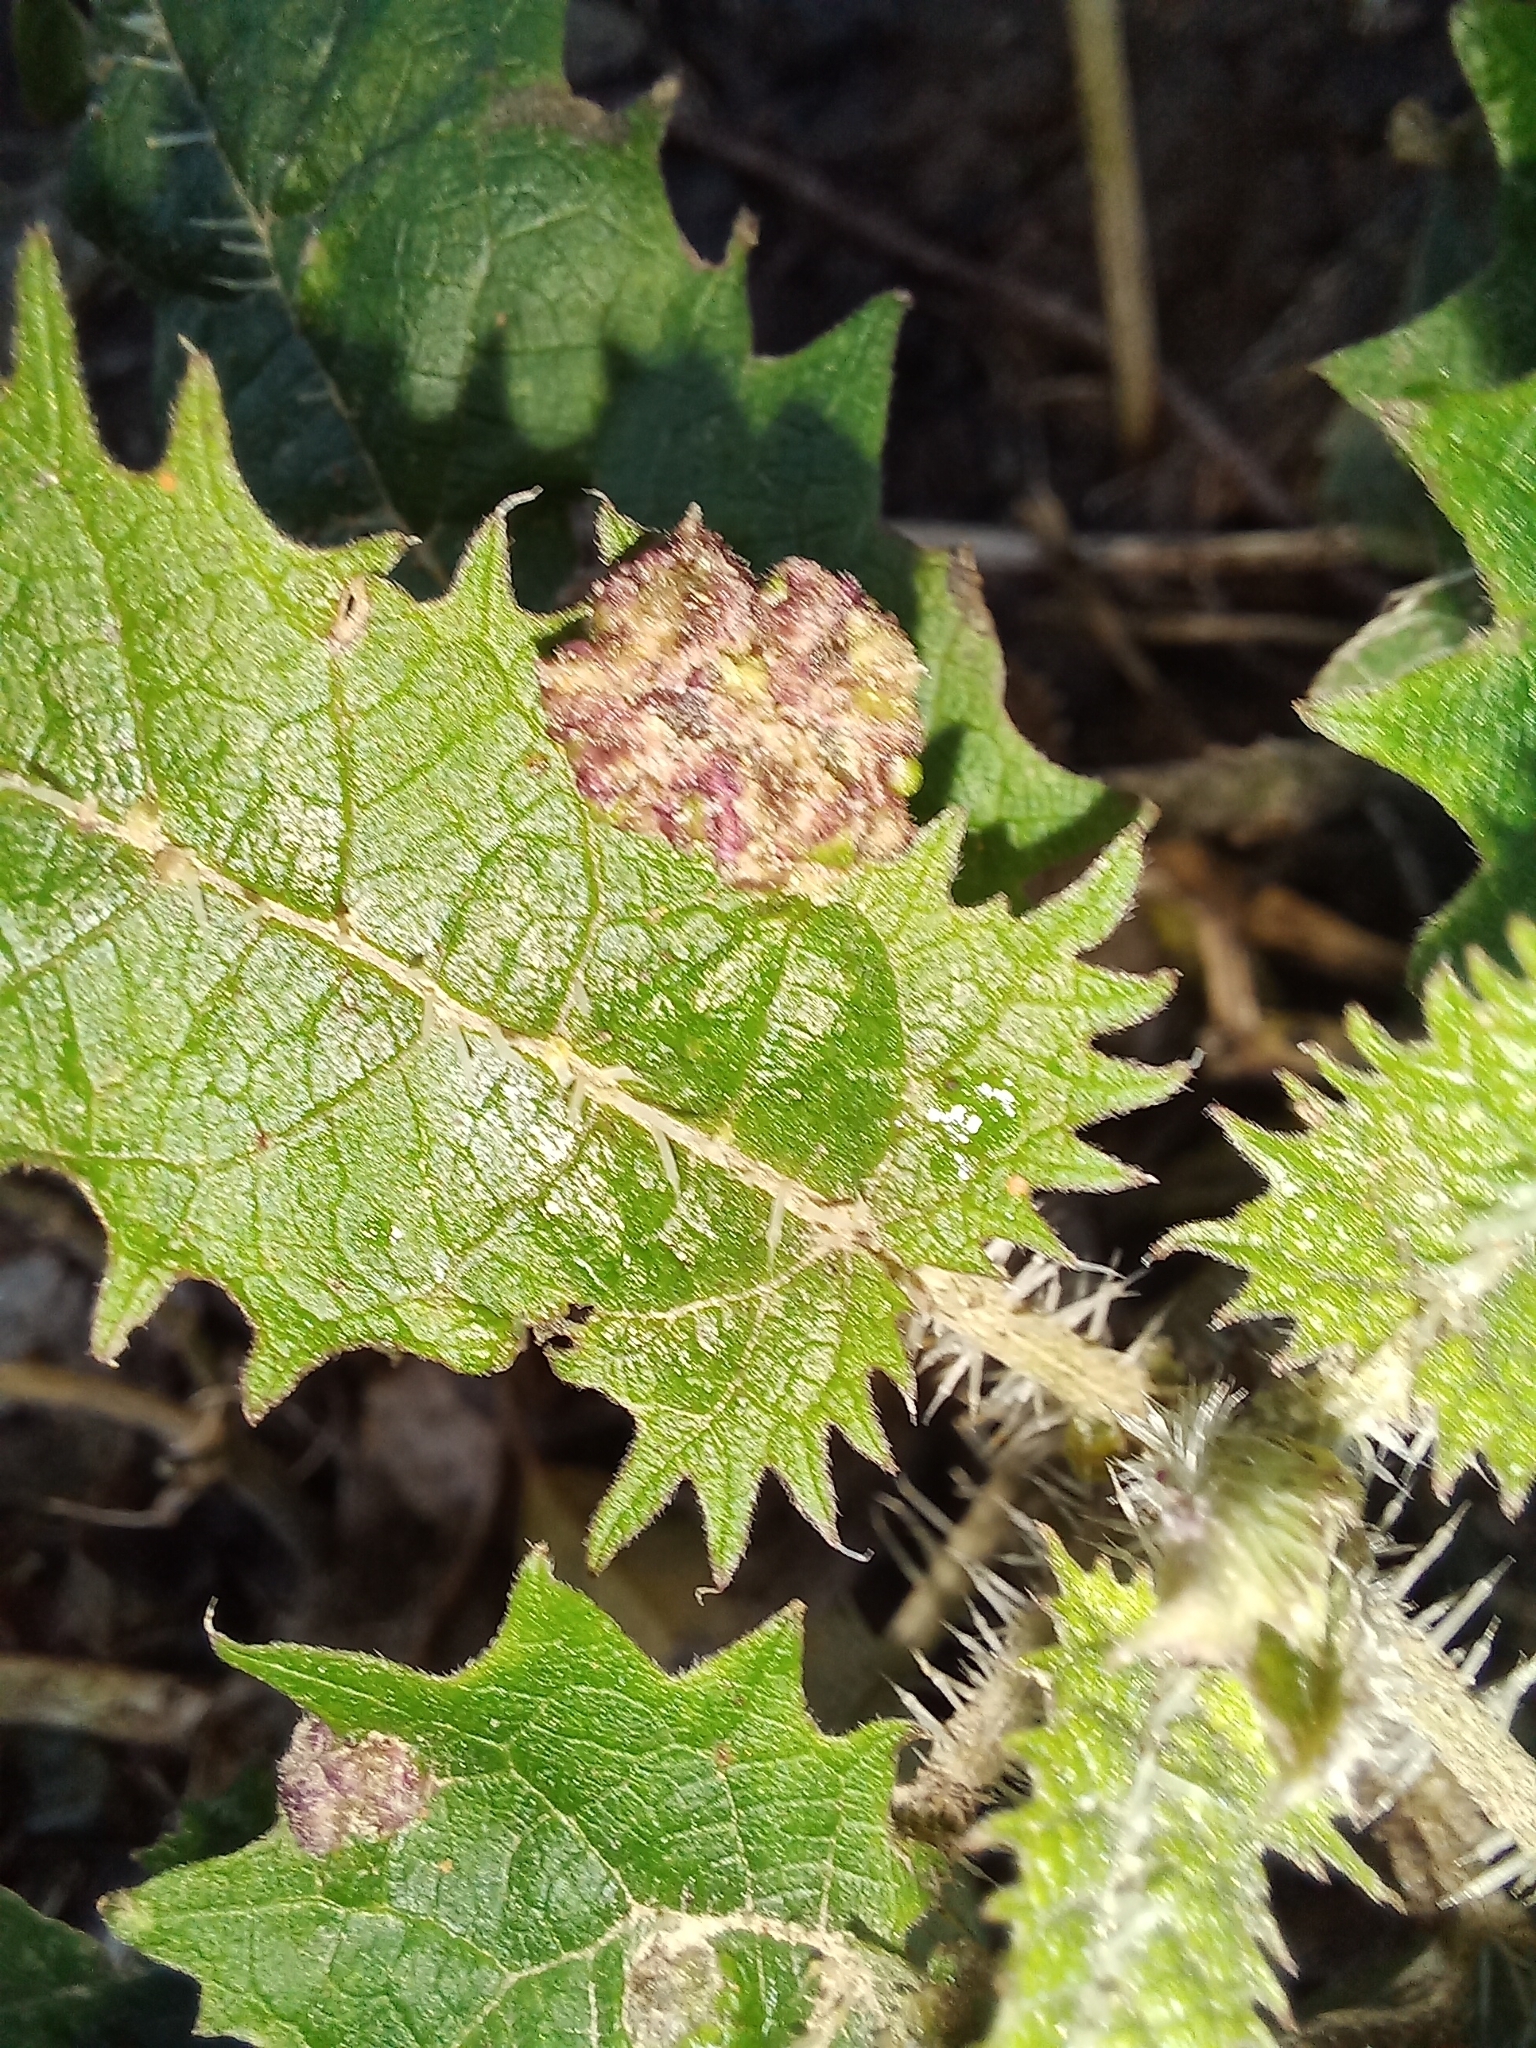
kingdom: Animalia
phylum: Arthropoda
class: Arachnida
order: Trombidiformes
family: Eriophyidae
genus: Vittacus
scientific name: Vittacus
